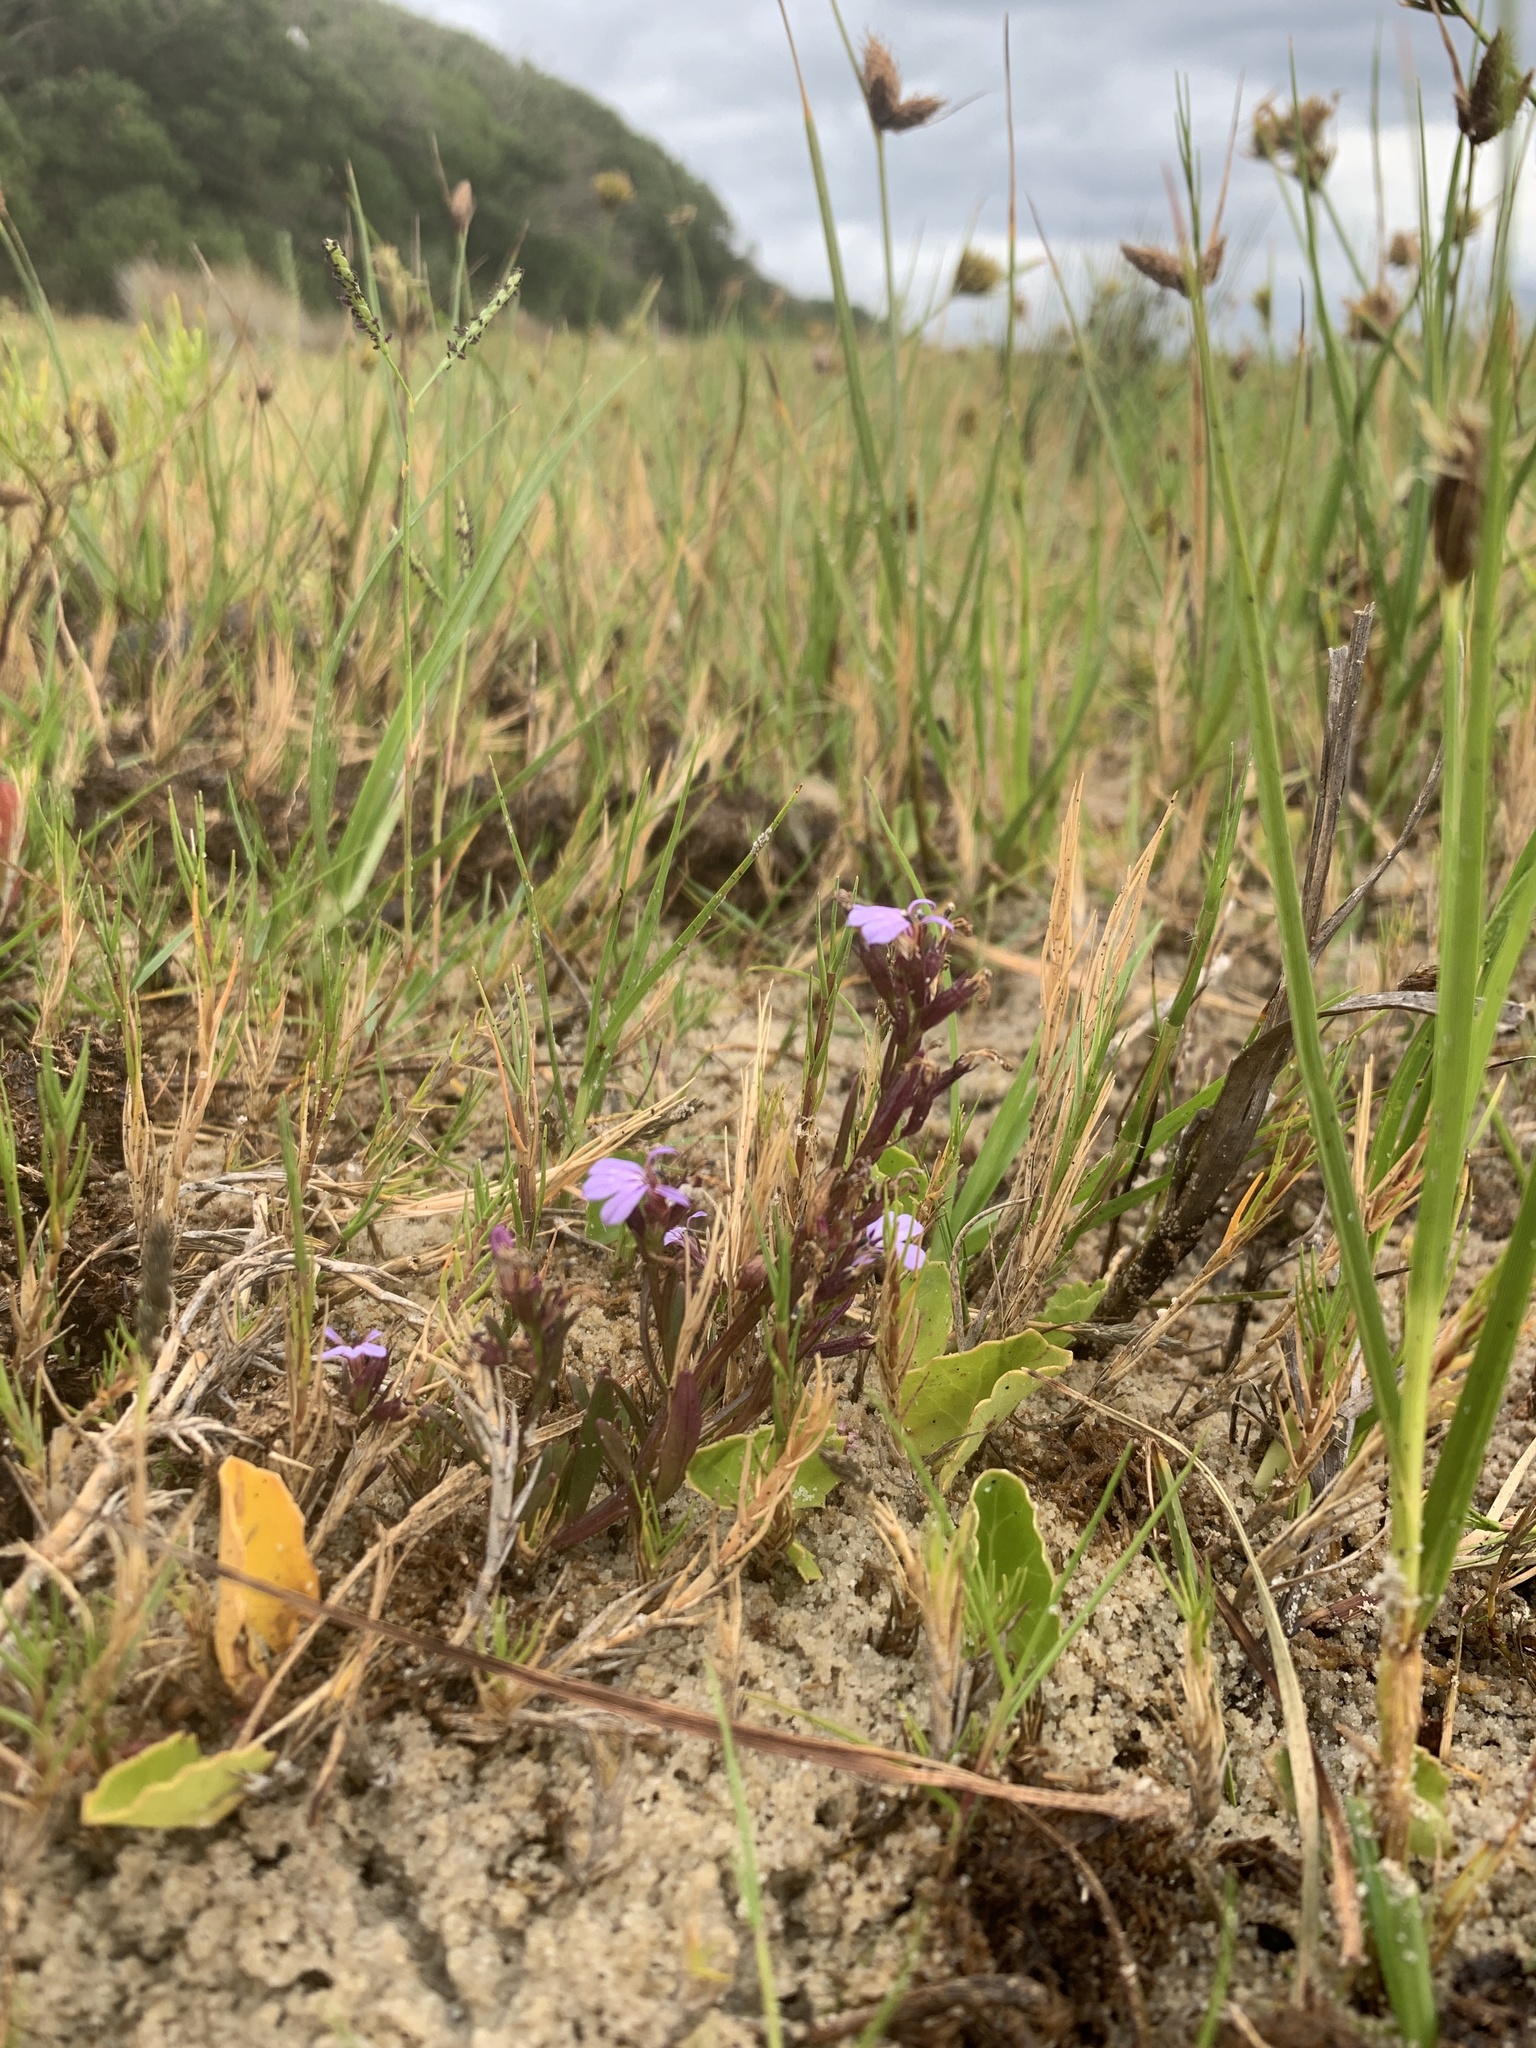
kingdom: Plantae
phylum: Tracheophyta
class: Magnoliopsida
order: Asterales
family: Campanulaceae
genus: Lobelia
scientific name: Lobelia anceps
